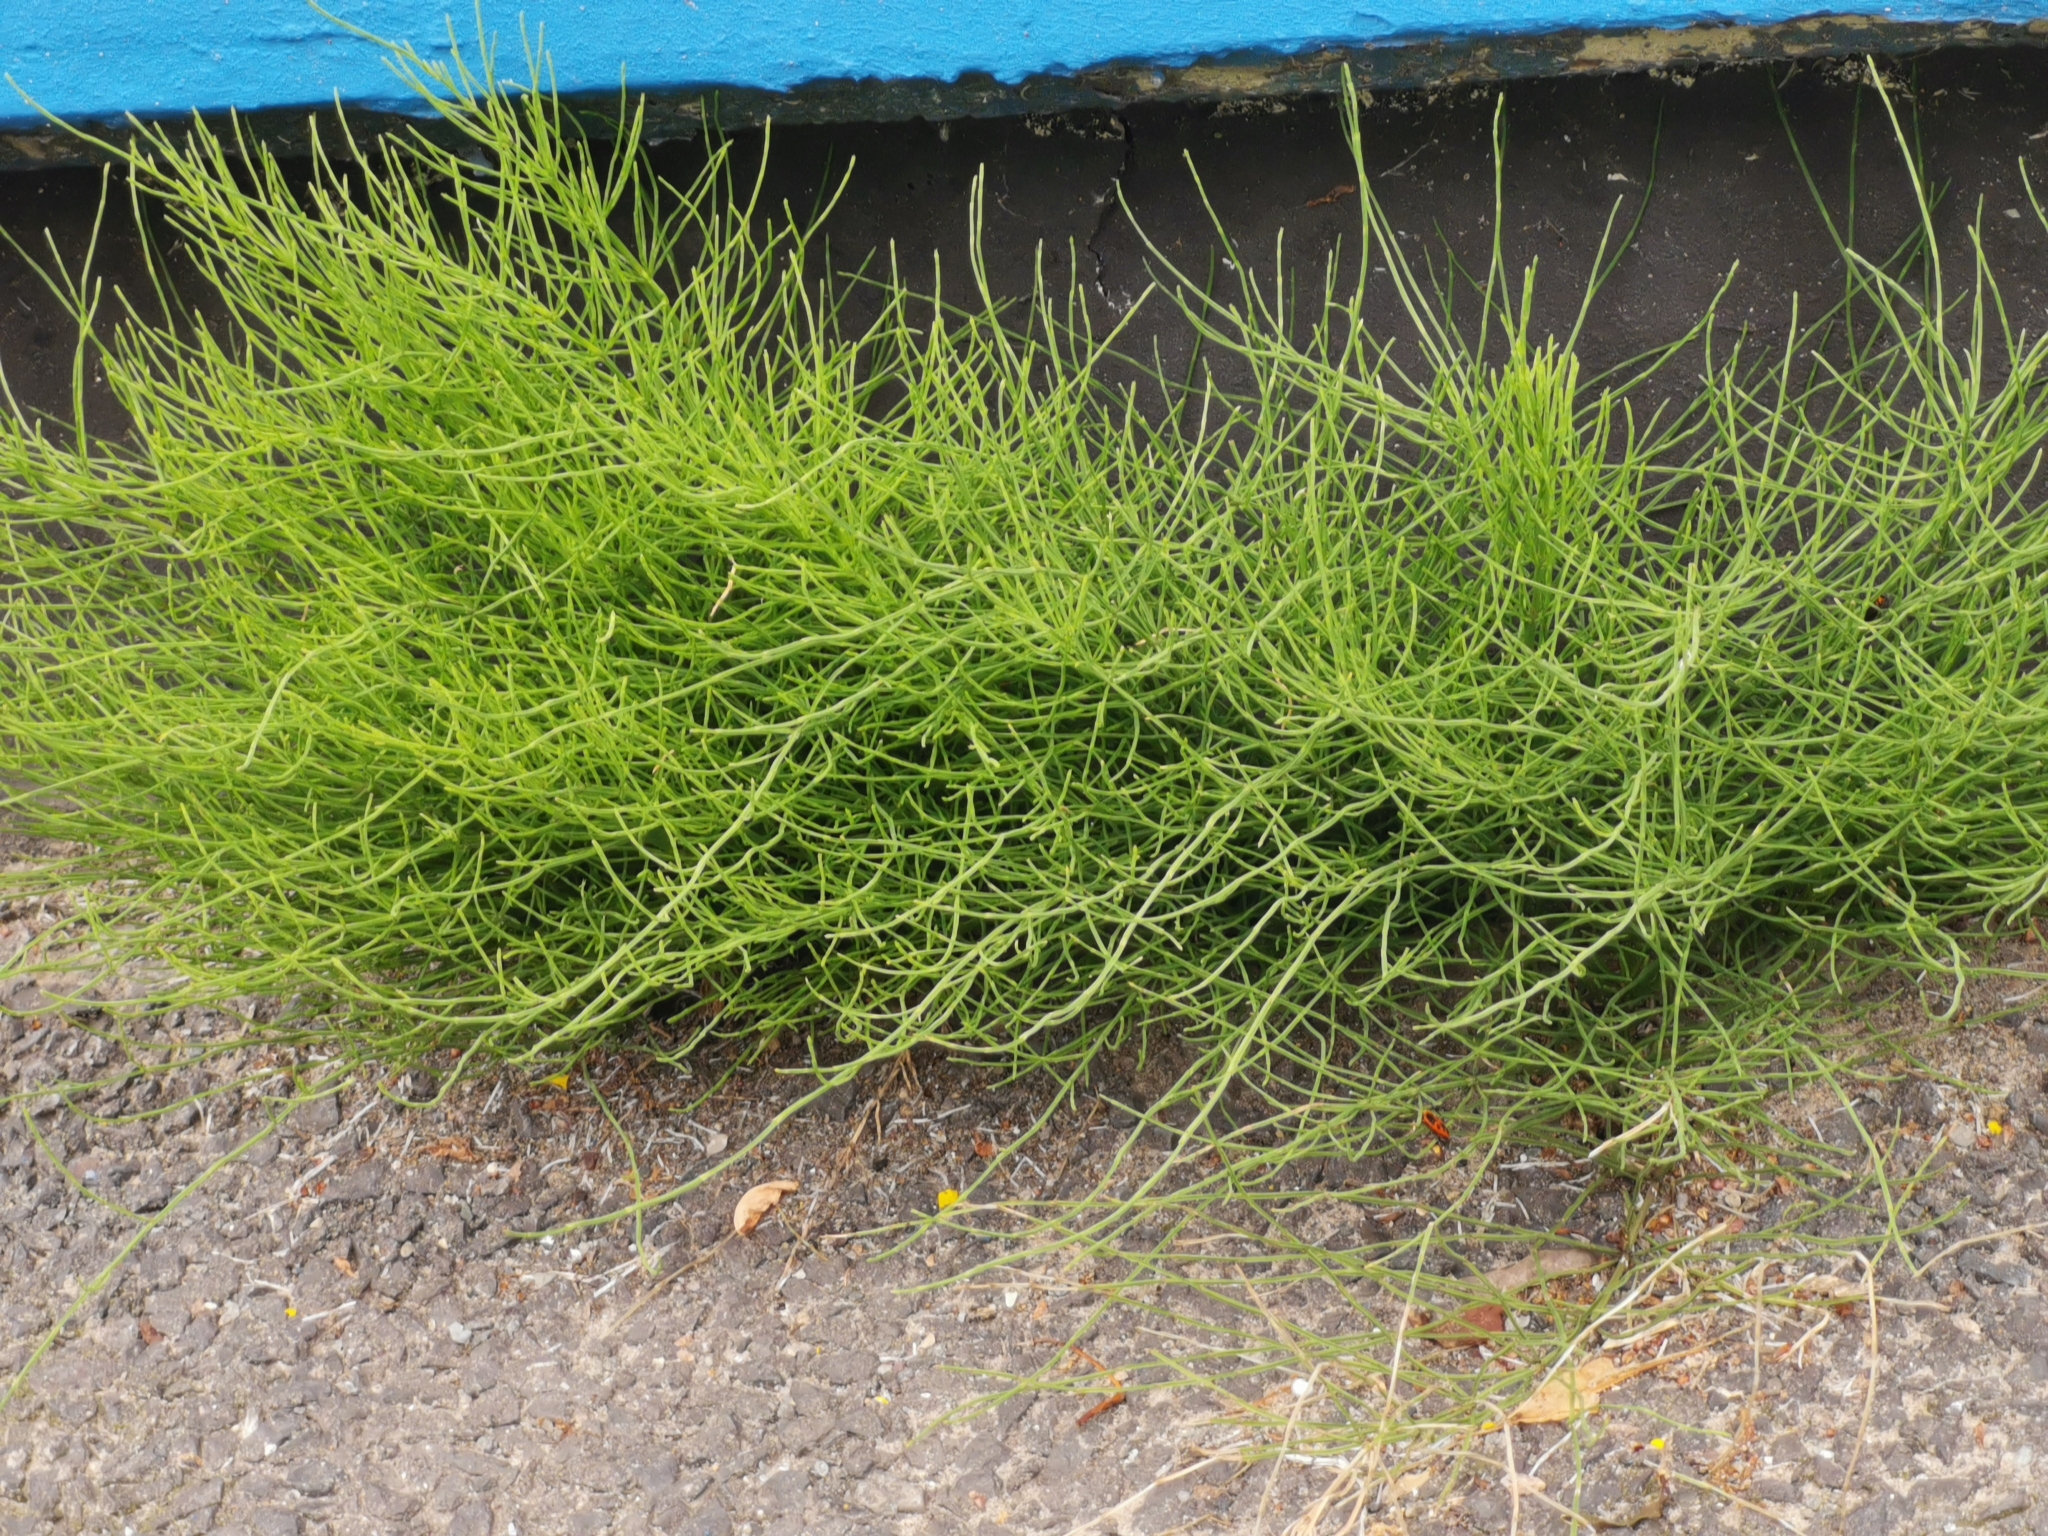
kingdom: Plantae
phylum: Tracheophyta
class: Polypodiopsida
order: Equisetales
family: Equisetaceae
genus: Equisetum
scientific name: Equisetum arvense
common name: Field horsetail
